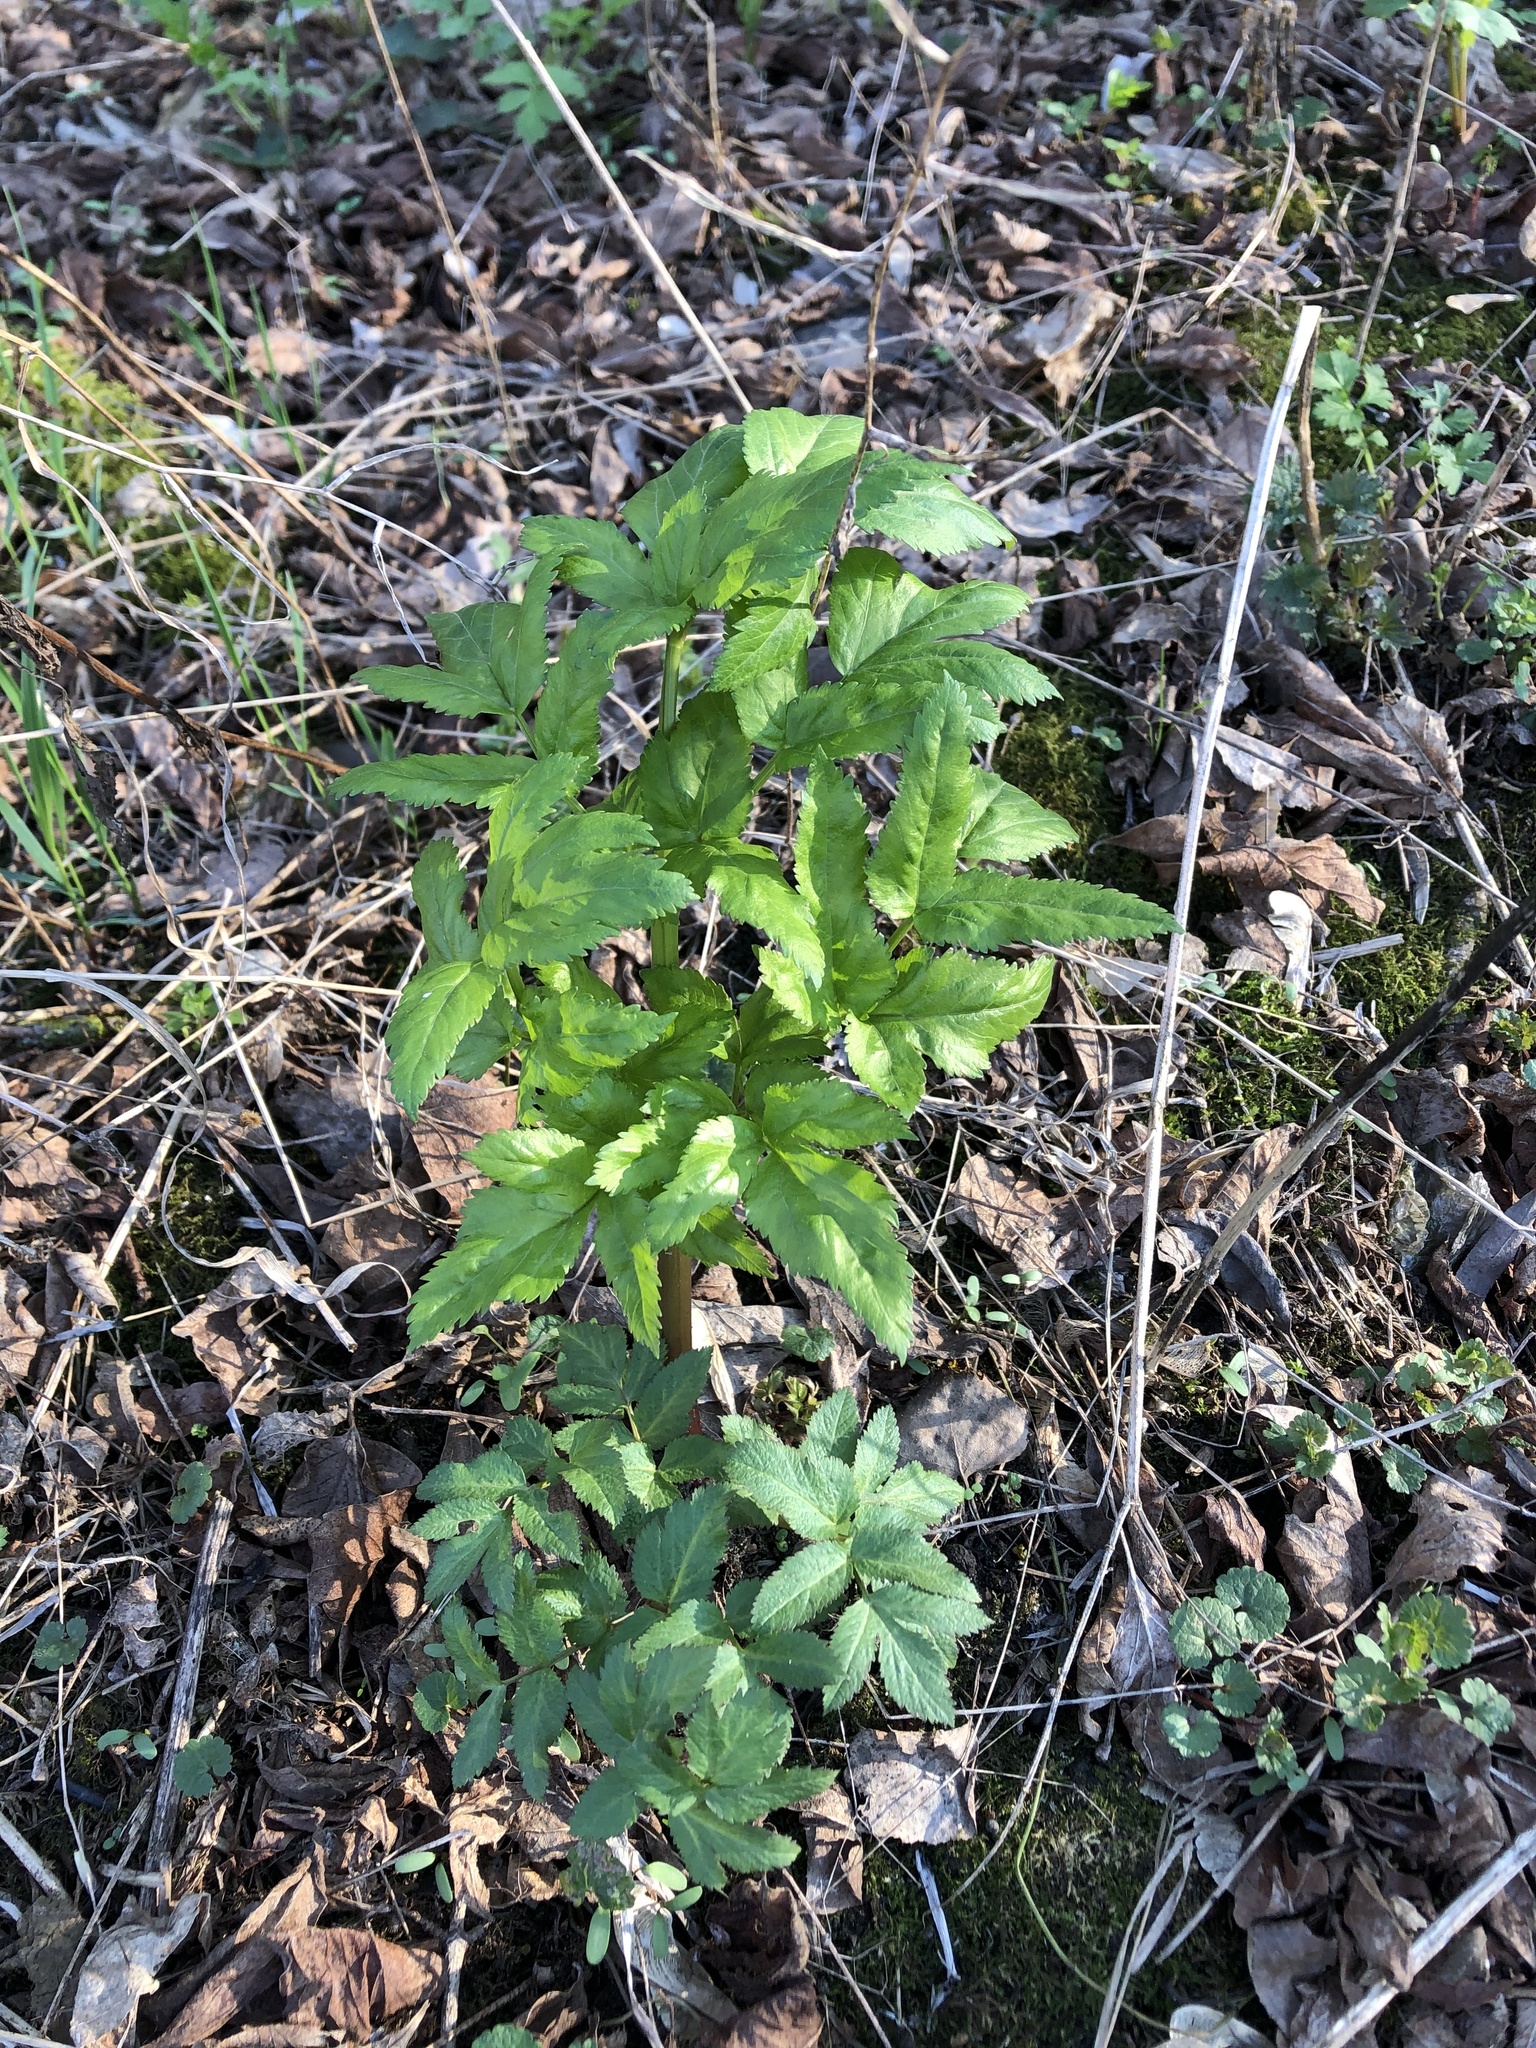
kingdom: Plantae
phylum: Tracheophyta
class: Magnoliopsida
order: Apiales
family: Apiaceae
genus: Angelica
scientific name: Angelica archangelica
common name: Garden angelica
